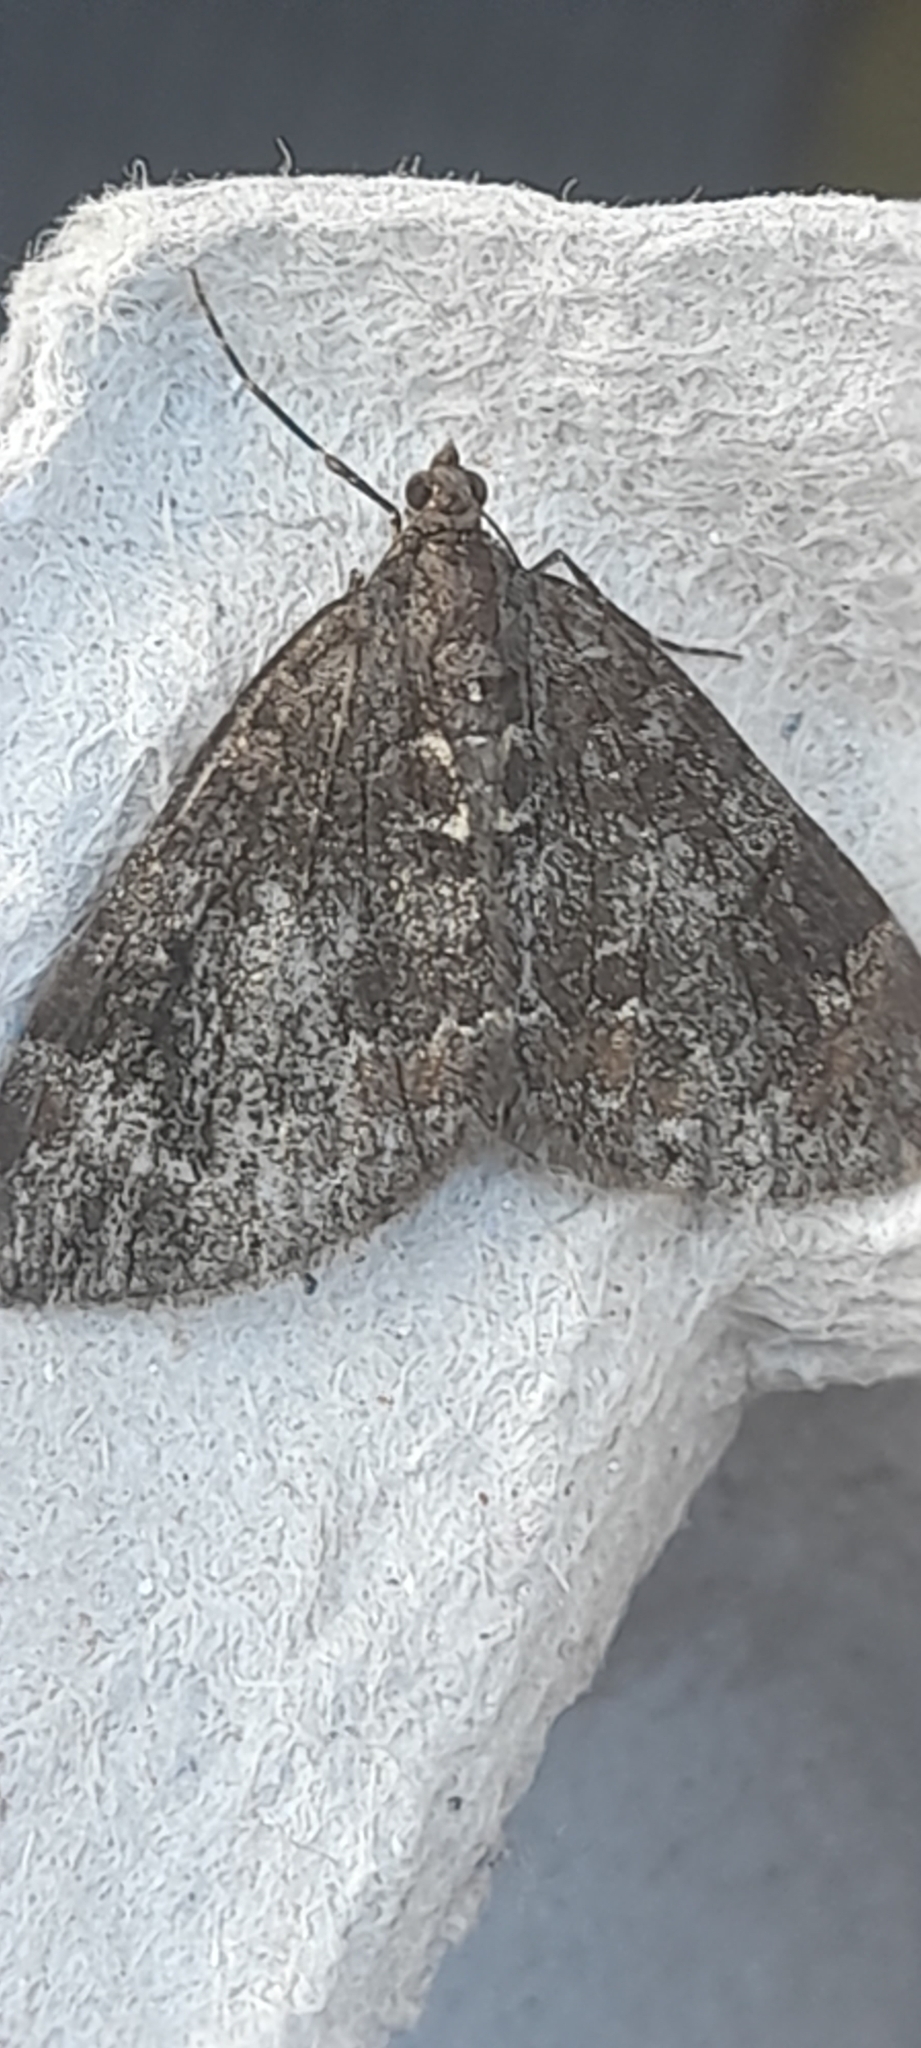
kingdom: Animalia
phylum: Arthropoda
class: Insecta
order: Lepidoptera
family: Geometridae
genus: Dysstroma
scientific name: Dysstroma truncata
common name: Common marbled carpet
